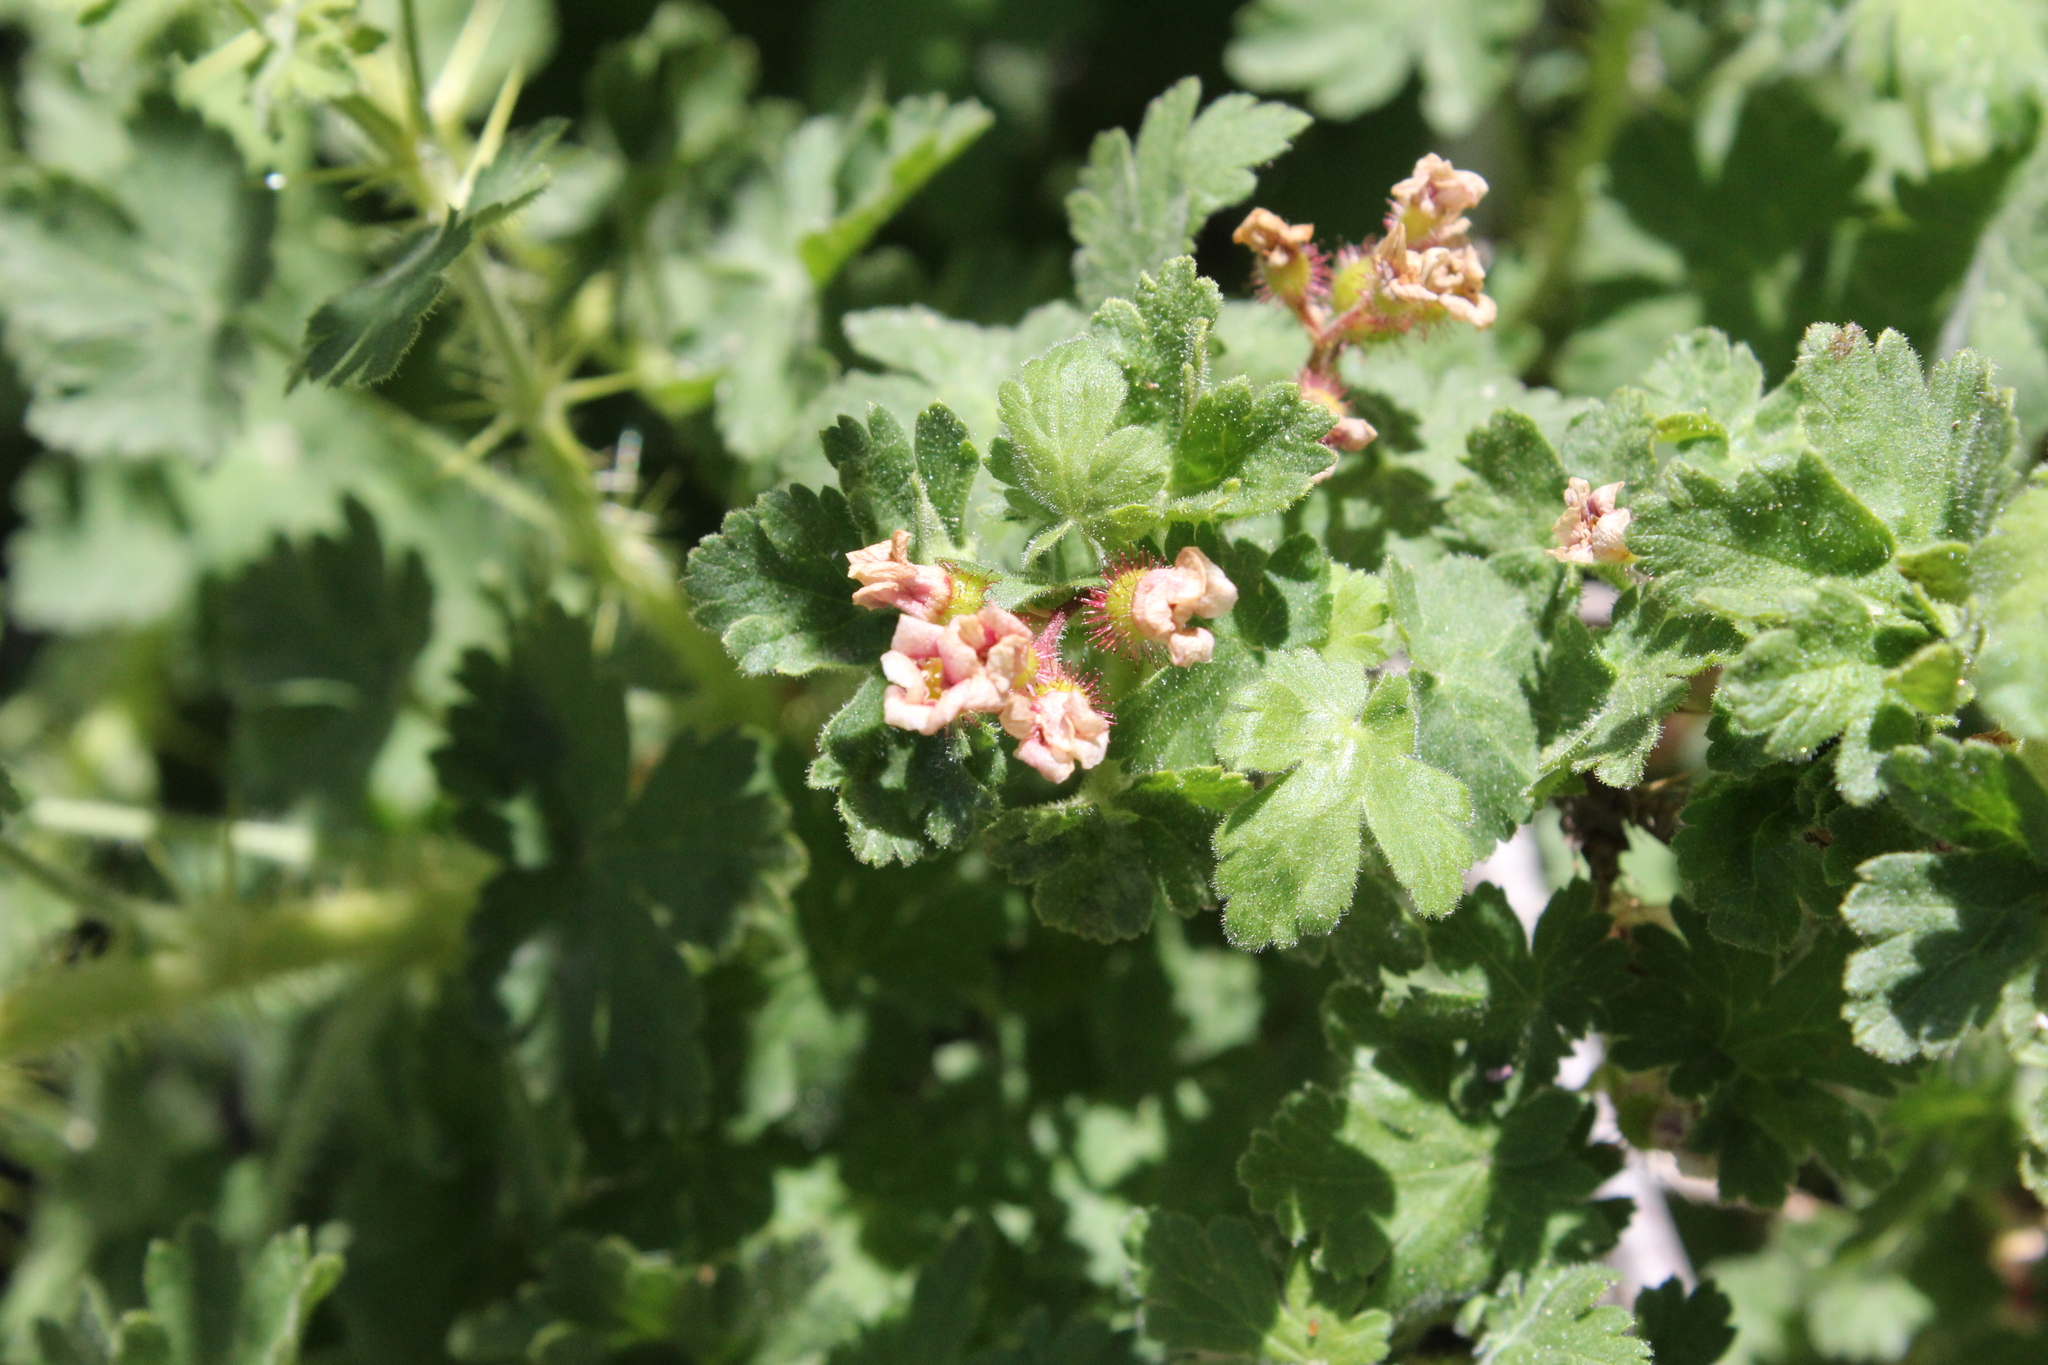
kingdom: Plantae
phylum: Tracheophyta
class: Magnoliopsida
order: Saxifragales
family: Grossulariaceae
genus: Ribes
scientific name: Ribes montigenum
